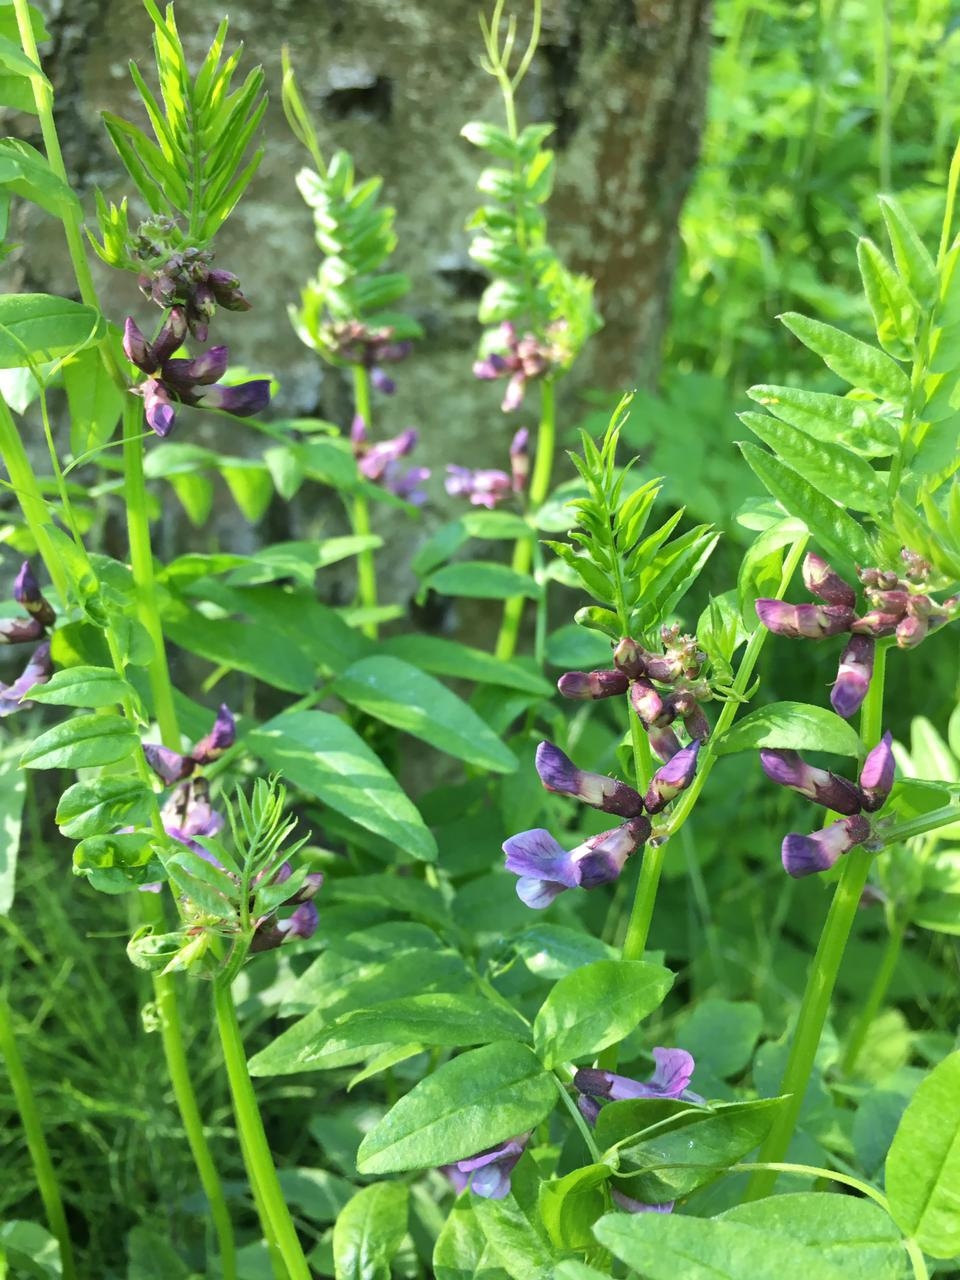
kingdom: Plantae
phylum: Tracheophyta
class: Magnoliopsida
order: Fabales
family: Fabaceae
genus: Vicia
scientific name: Vicia sepium
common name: Bush vetch
